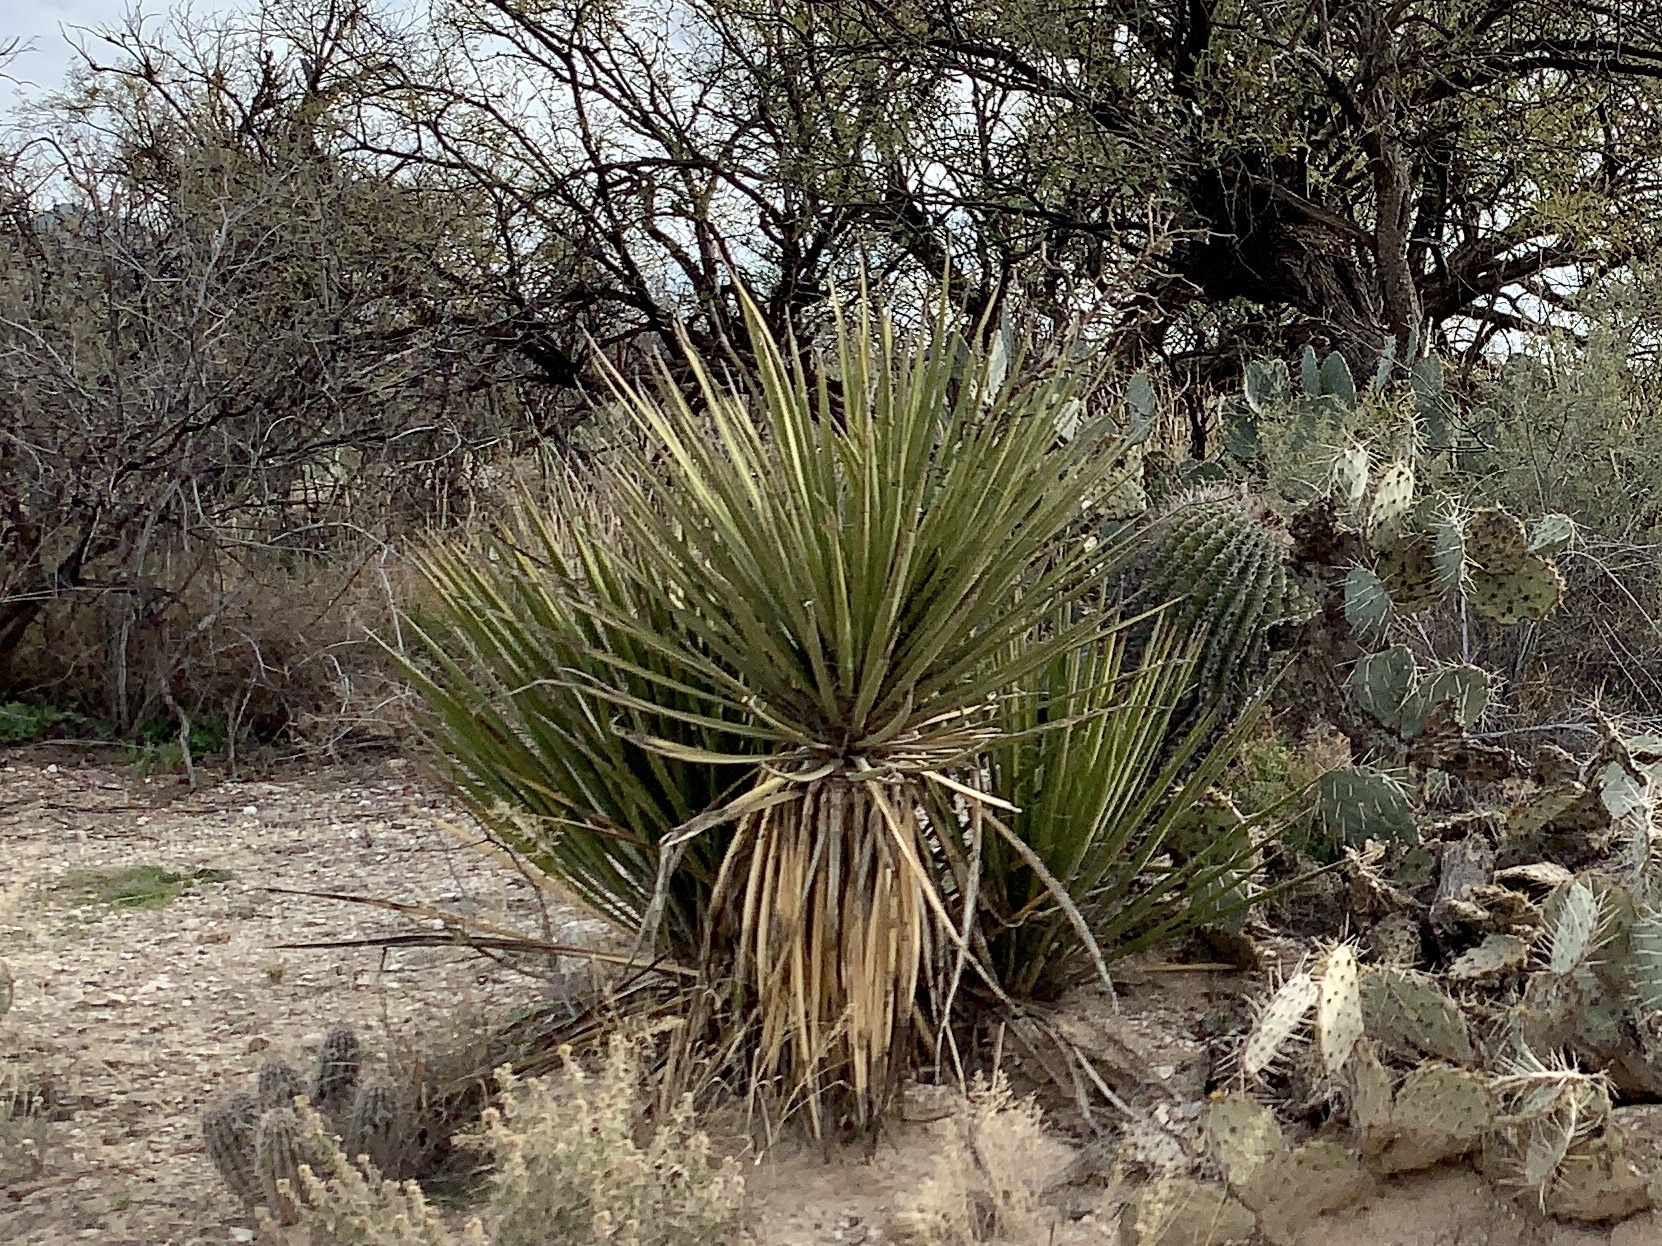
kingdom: Plantae
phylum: Tracheophyta
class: Liliopsida
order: Asparagales
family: Asparagaceae
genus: Yucca
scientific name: Yucca baccata
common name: Banana yucca
